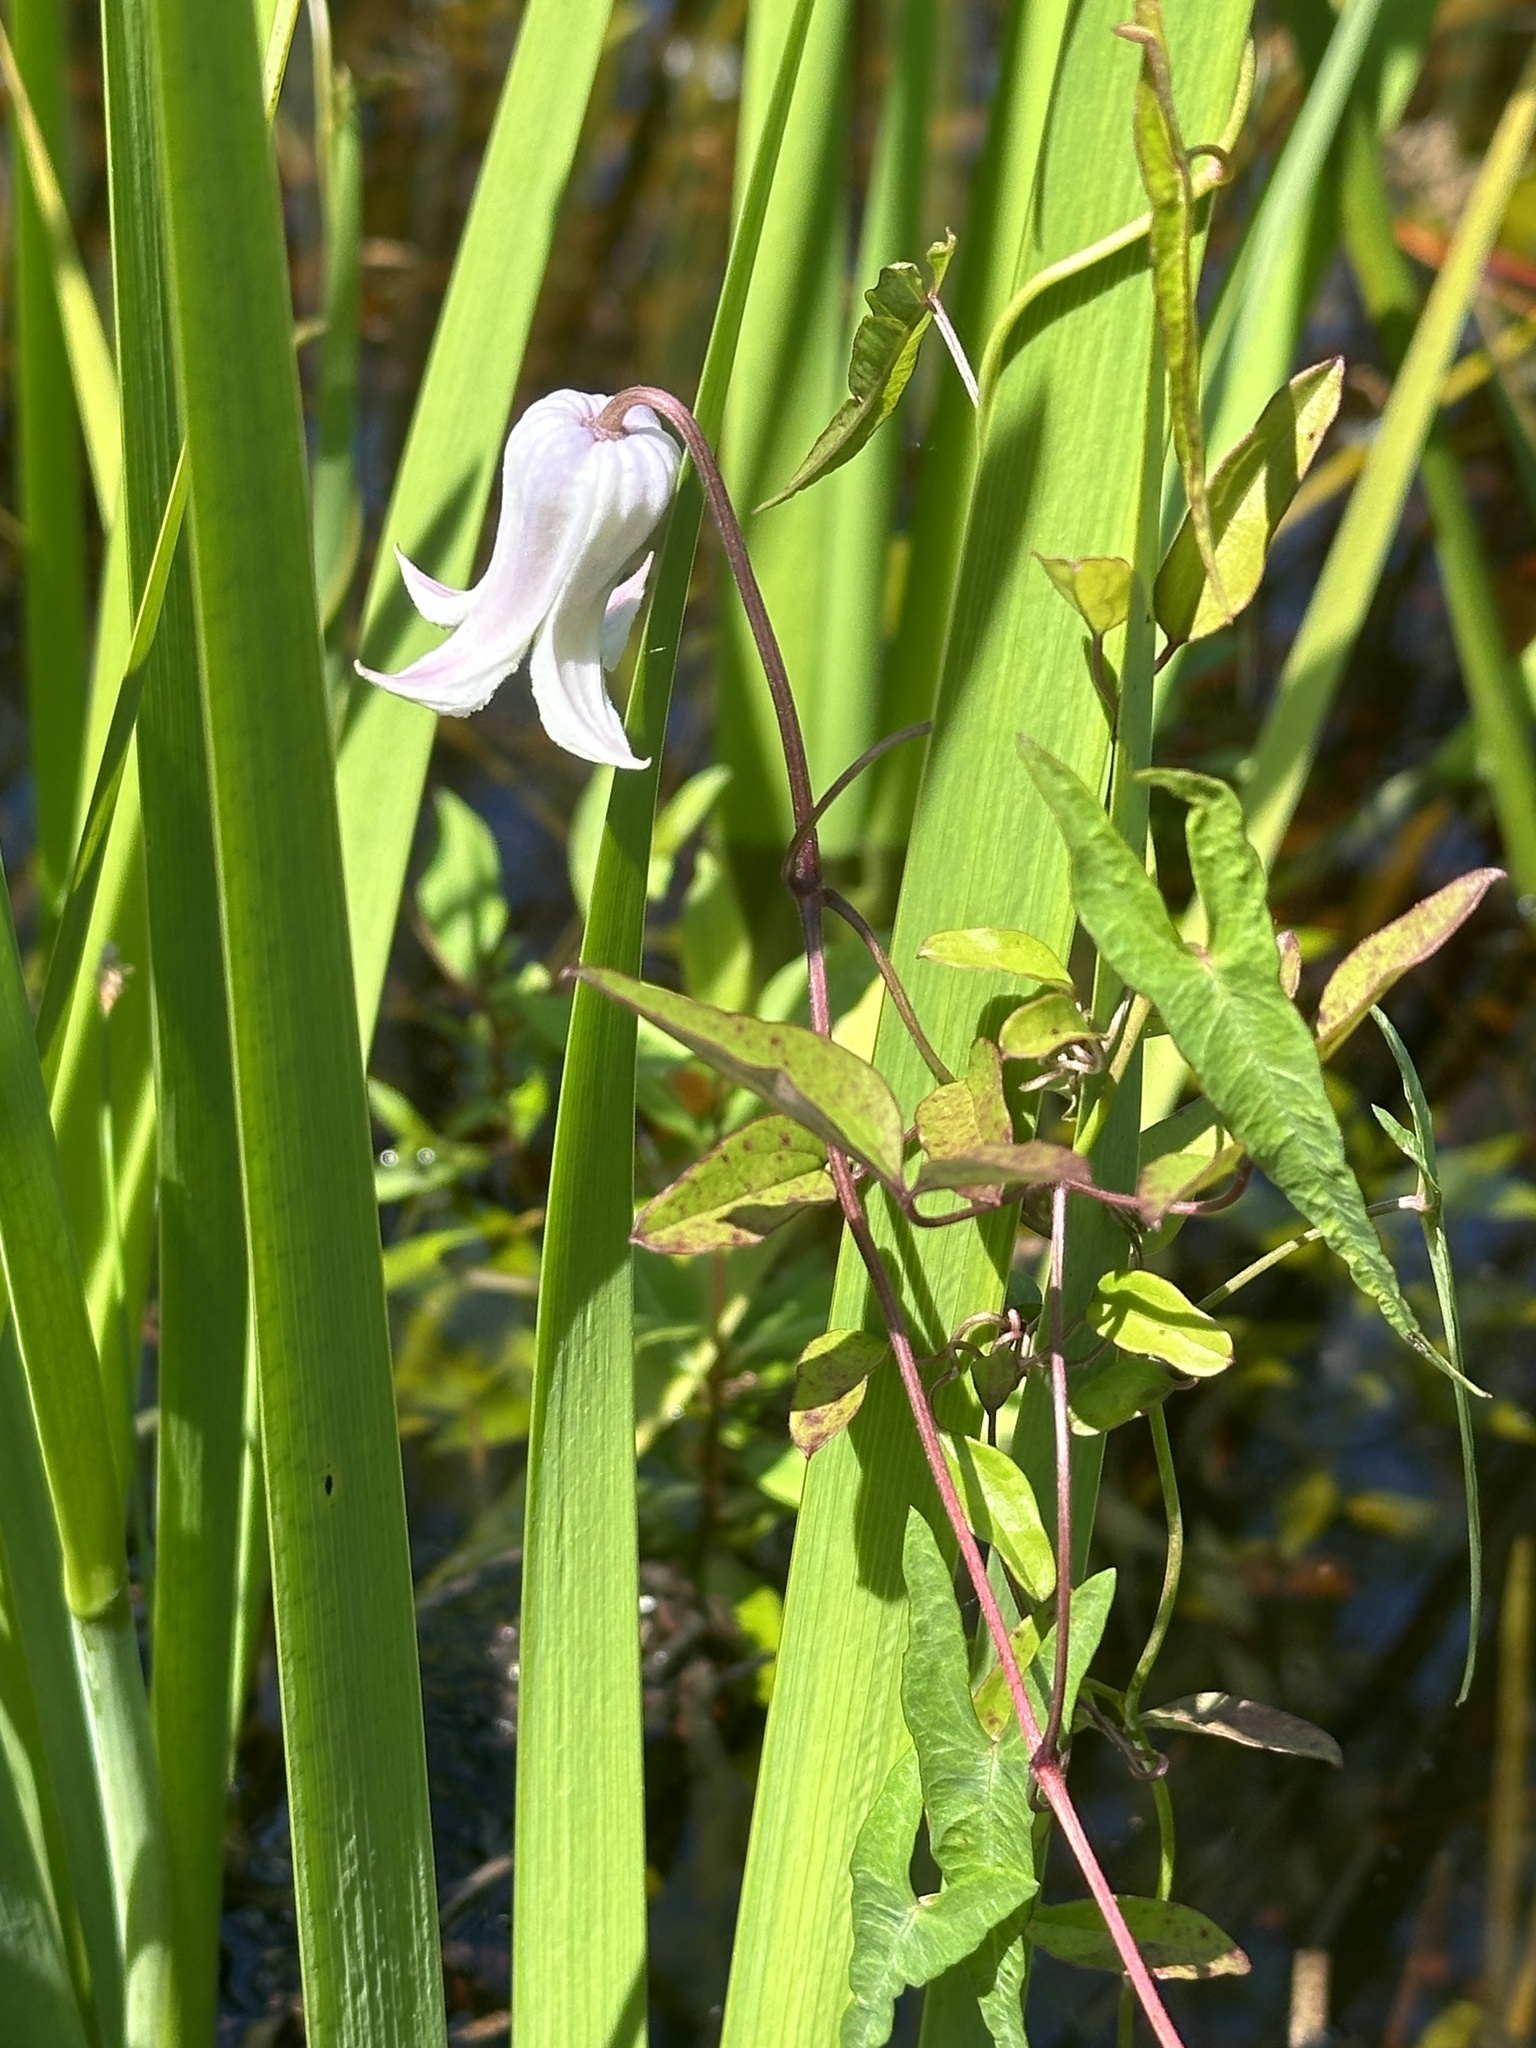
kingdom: Plantae
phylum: Tracheophyta
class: Magnoliopsida
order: Ranunculales
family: Ranunculaceae
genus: Clematis
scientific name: Clematis crispa
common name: Curly clematis
